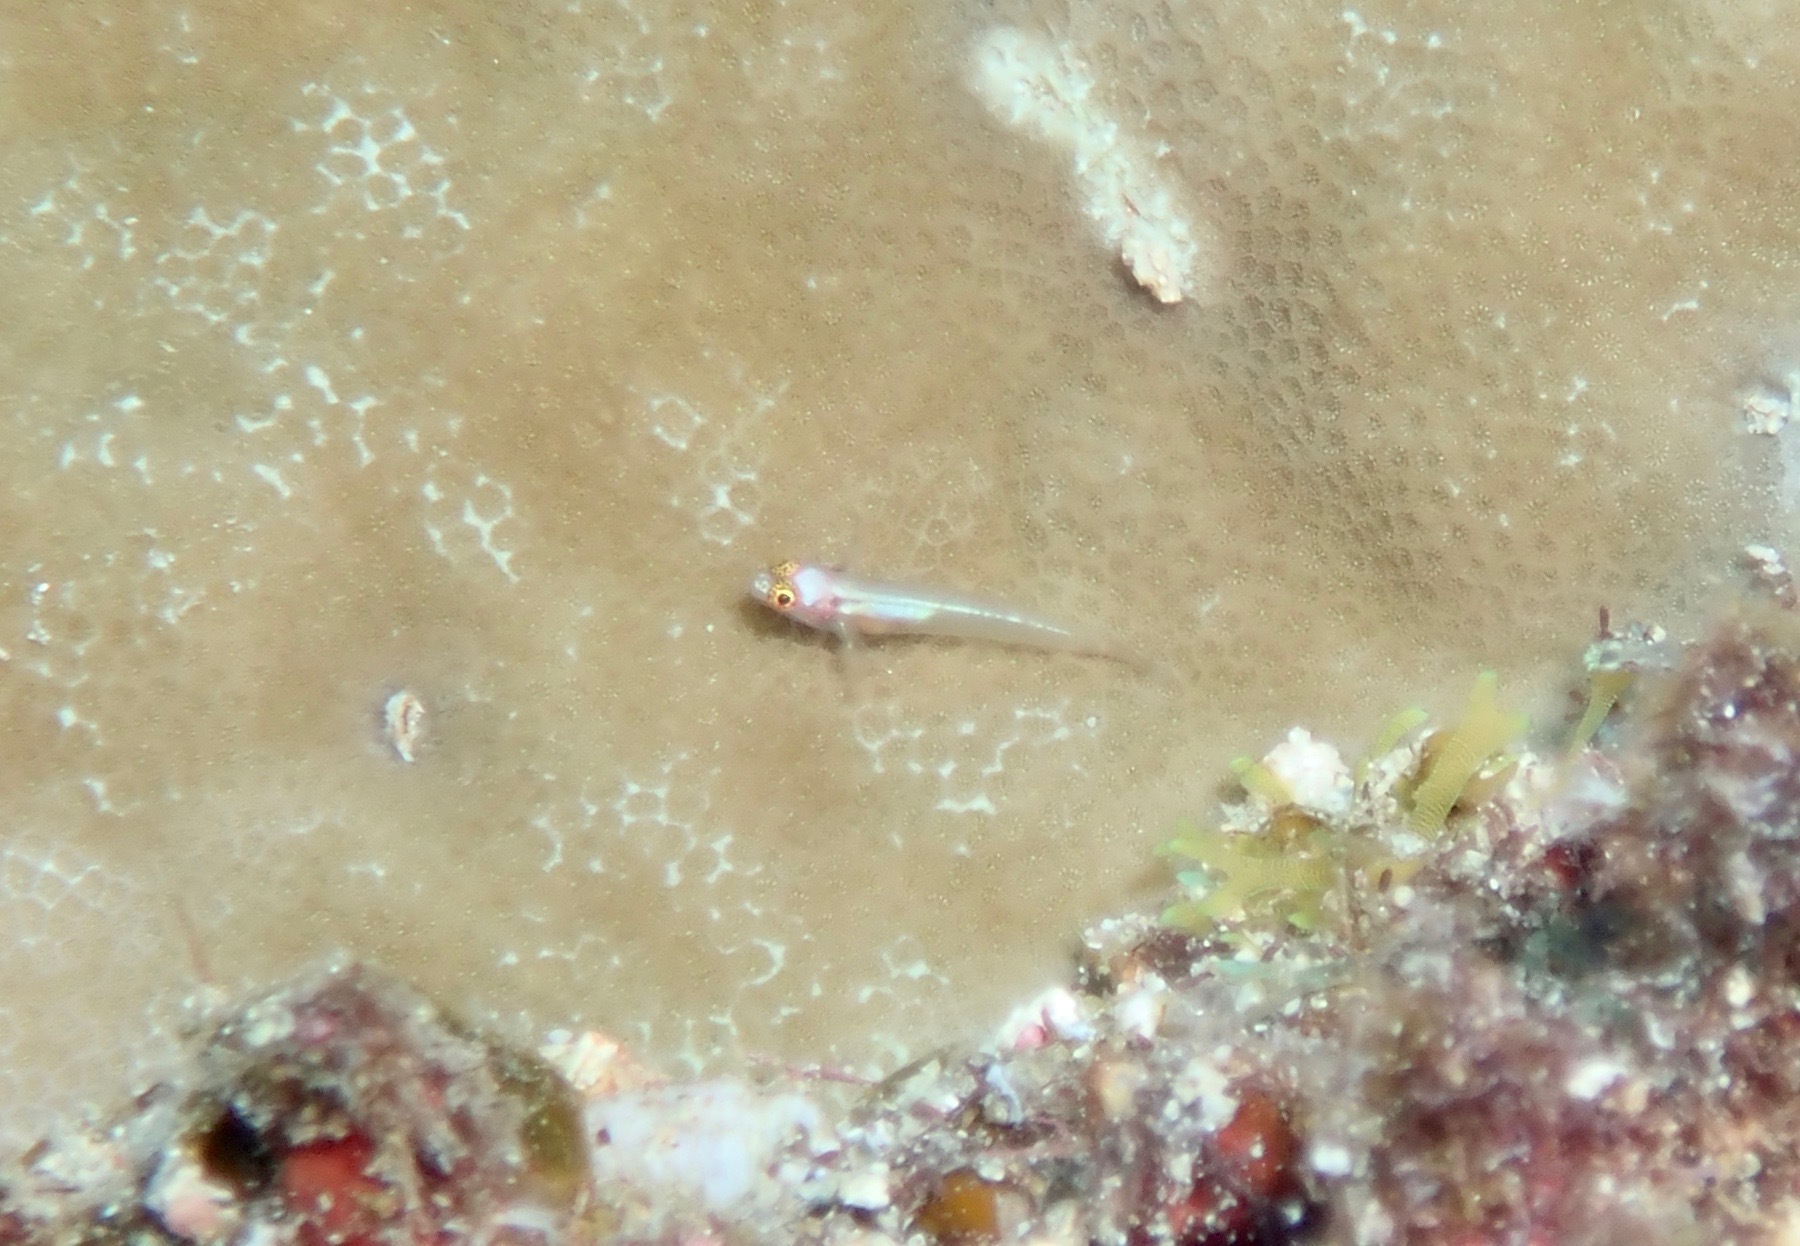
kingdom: Animalia
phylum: Chordata
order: Perciformes
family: Gobiidae
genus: Eviota
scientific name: Eviota karaspila
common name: Eastern headspot dwarfgoby
